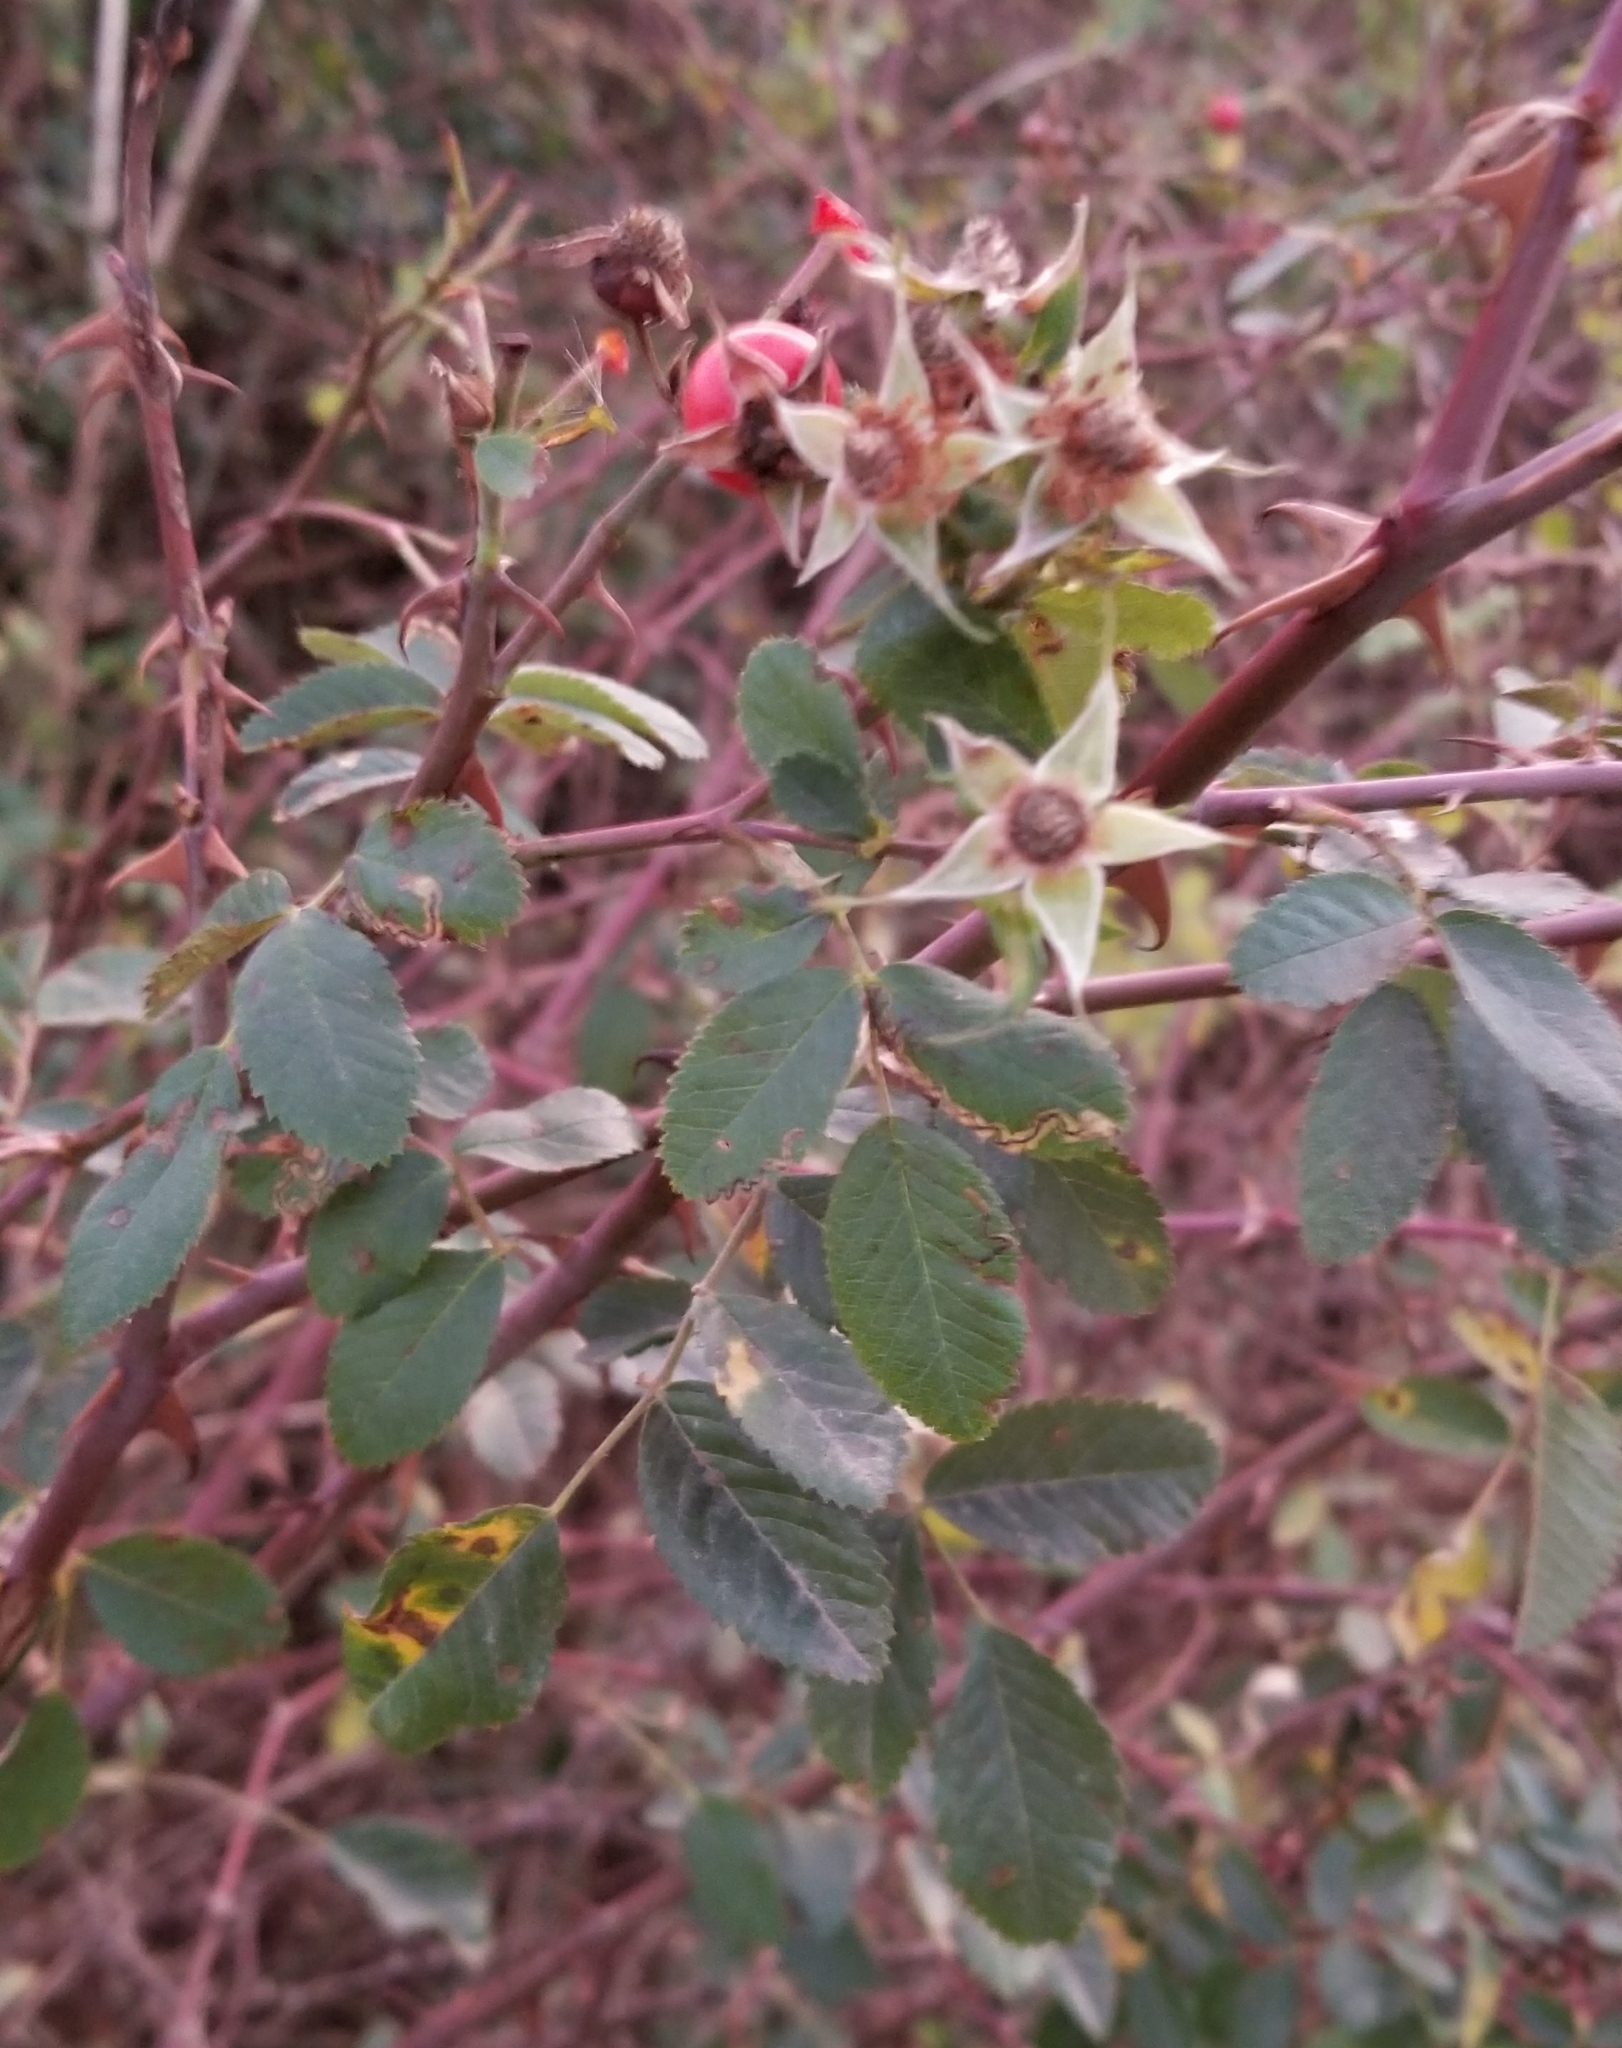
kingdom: Plantae
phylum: Tracheophyta
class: Magnoliopsida
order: Rosales
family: Rosaceae
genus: Rosa
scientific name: Rosa californica
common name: California rose
